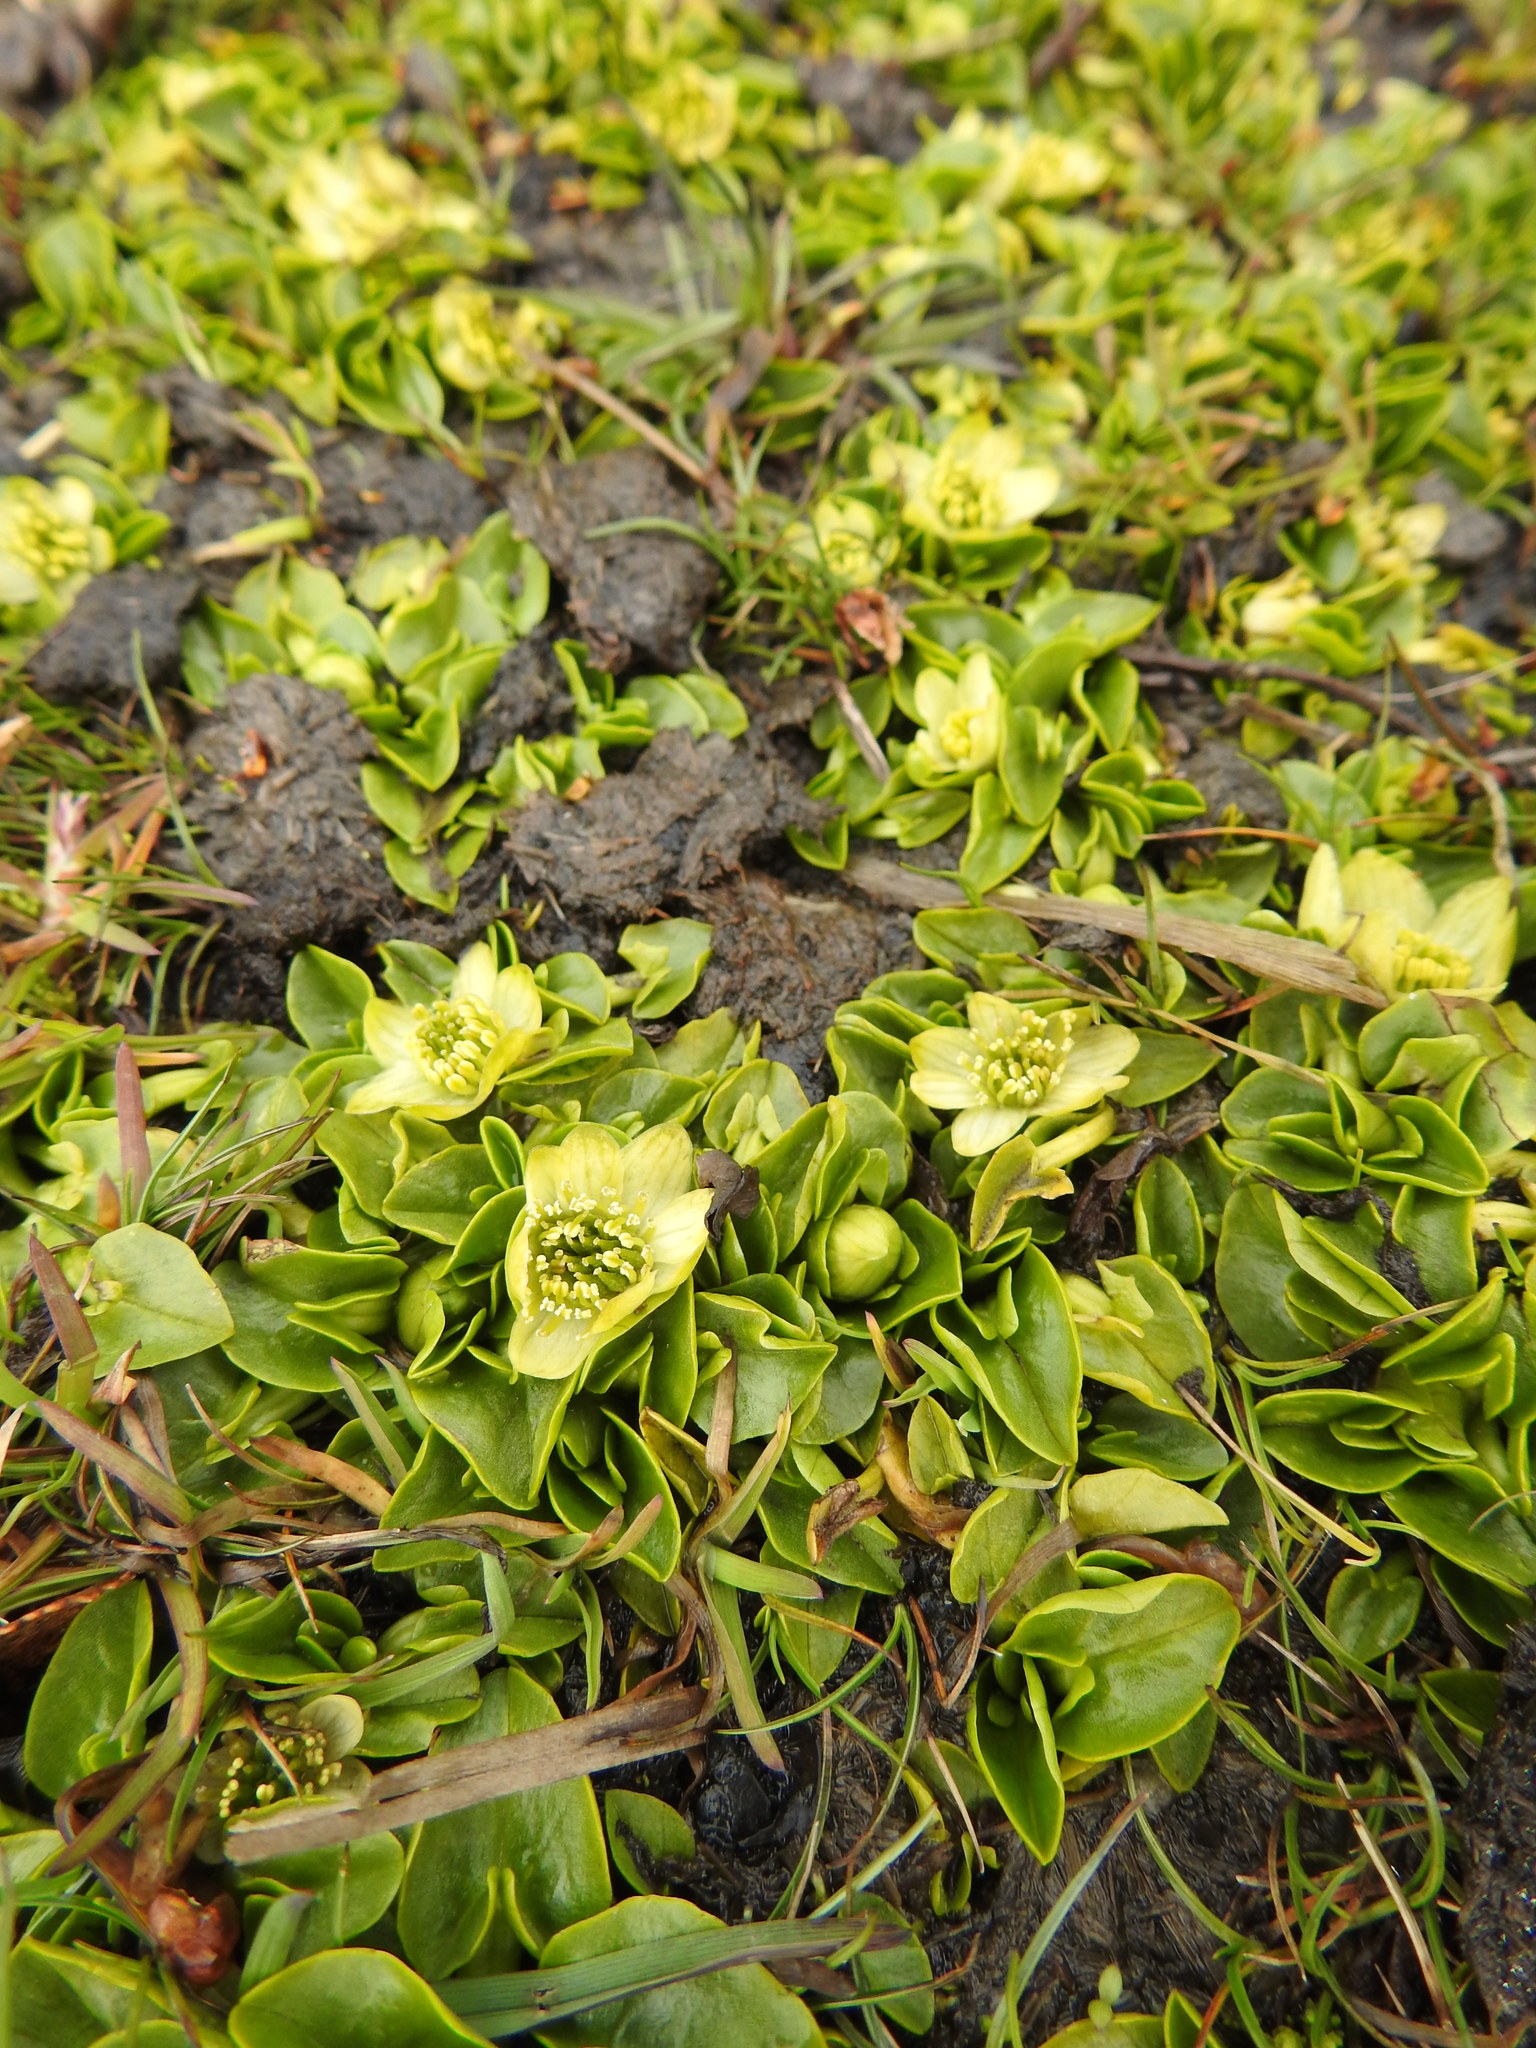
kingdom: Plantae
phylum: Tracheophyta
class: Magnoliopsida
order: Ranunculales
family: Ranunculaceae
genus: Caltha
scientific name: Caltha sagittata
